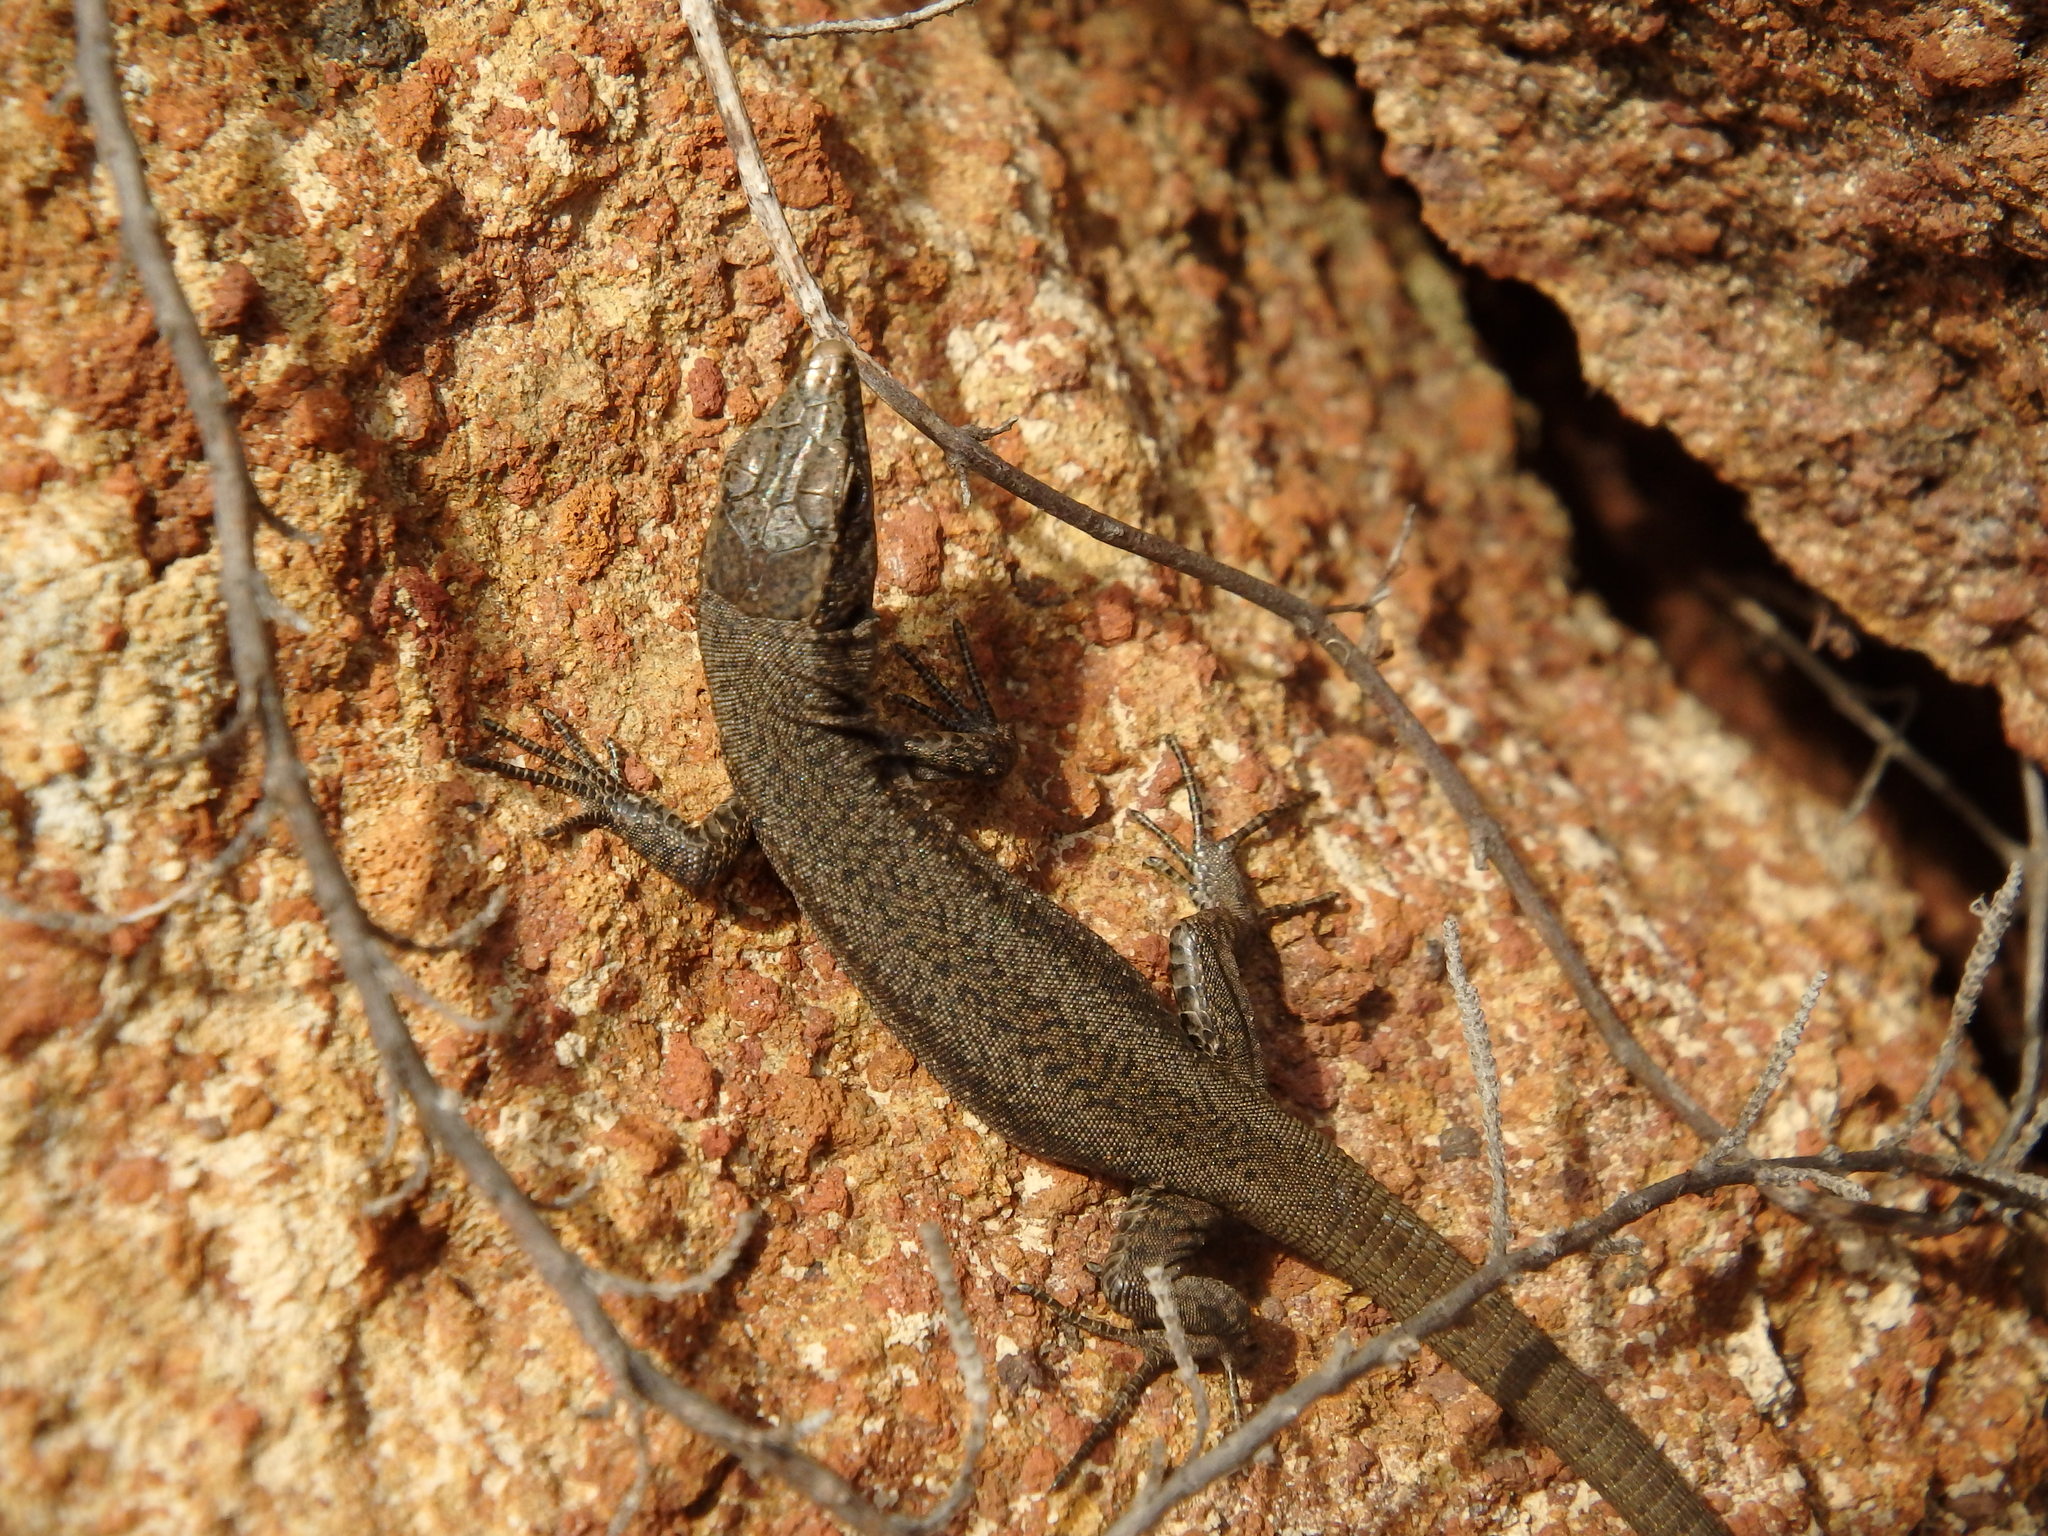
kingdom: Animalia
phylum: Chordata
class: Squamata
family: Lacertidae
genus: Teira
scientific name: Teira dugesii
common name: Madeira lizard
